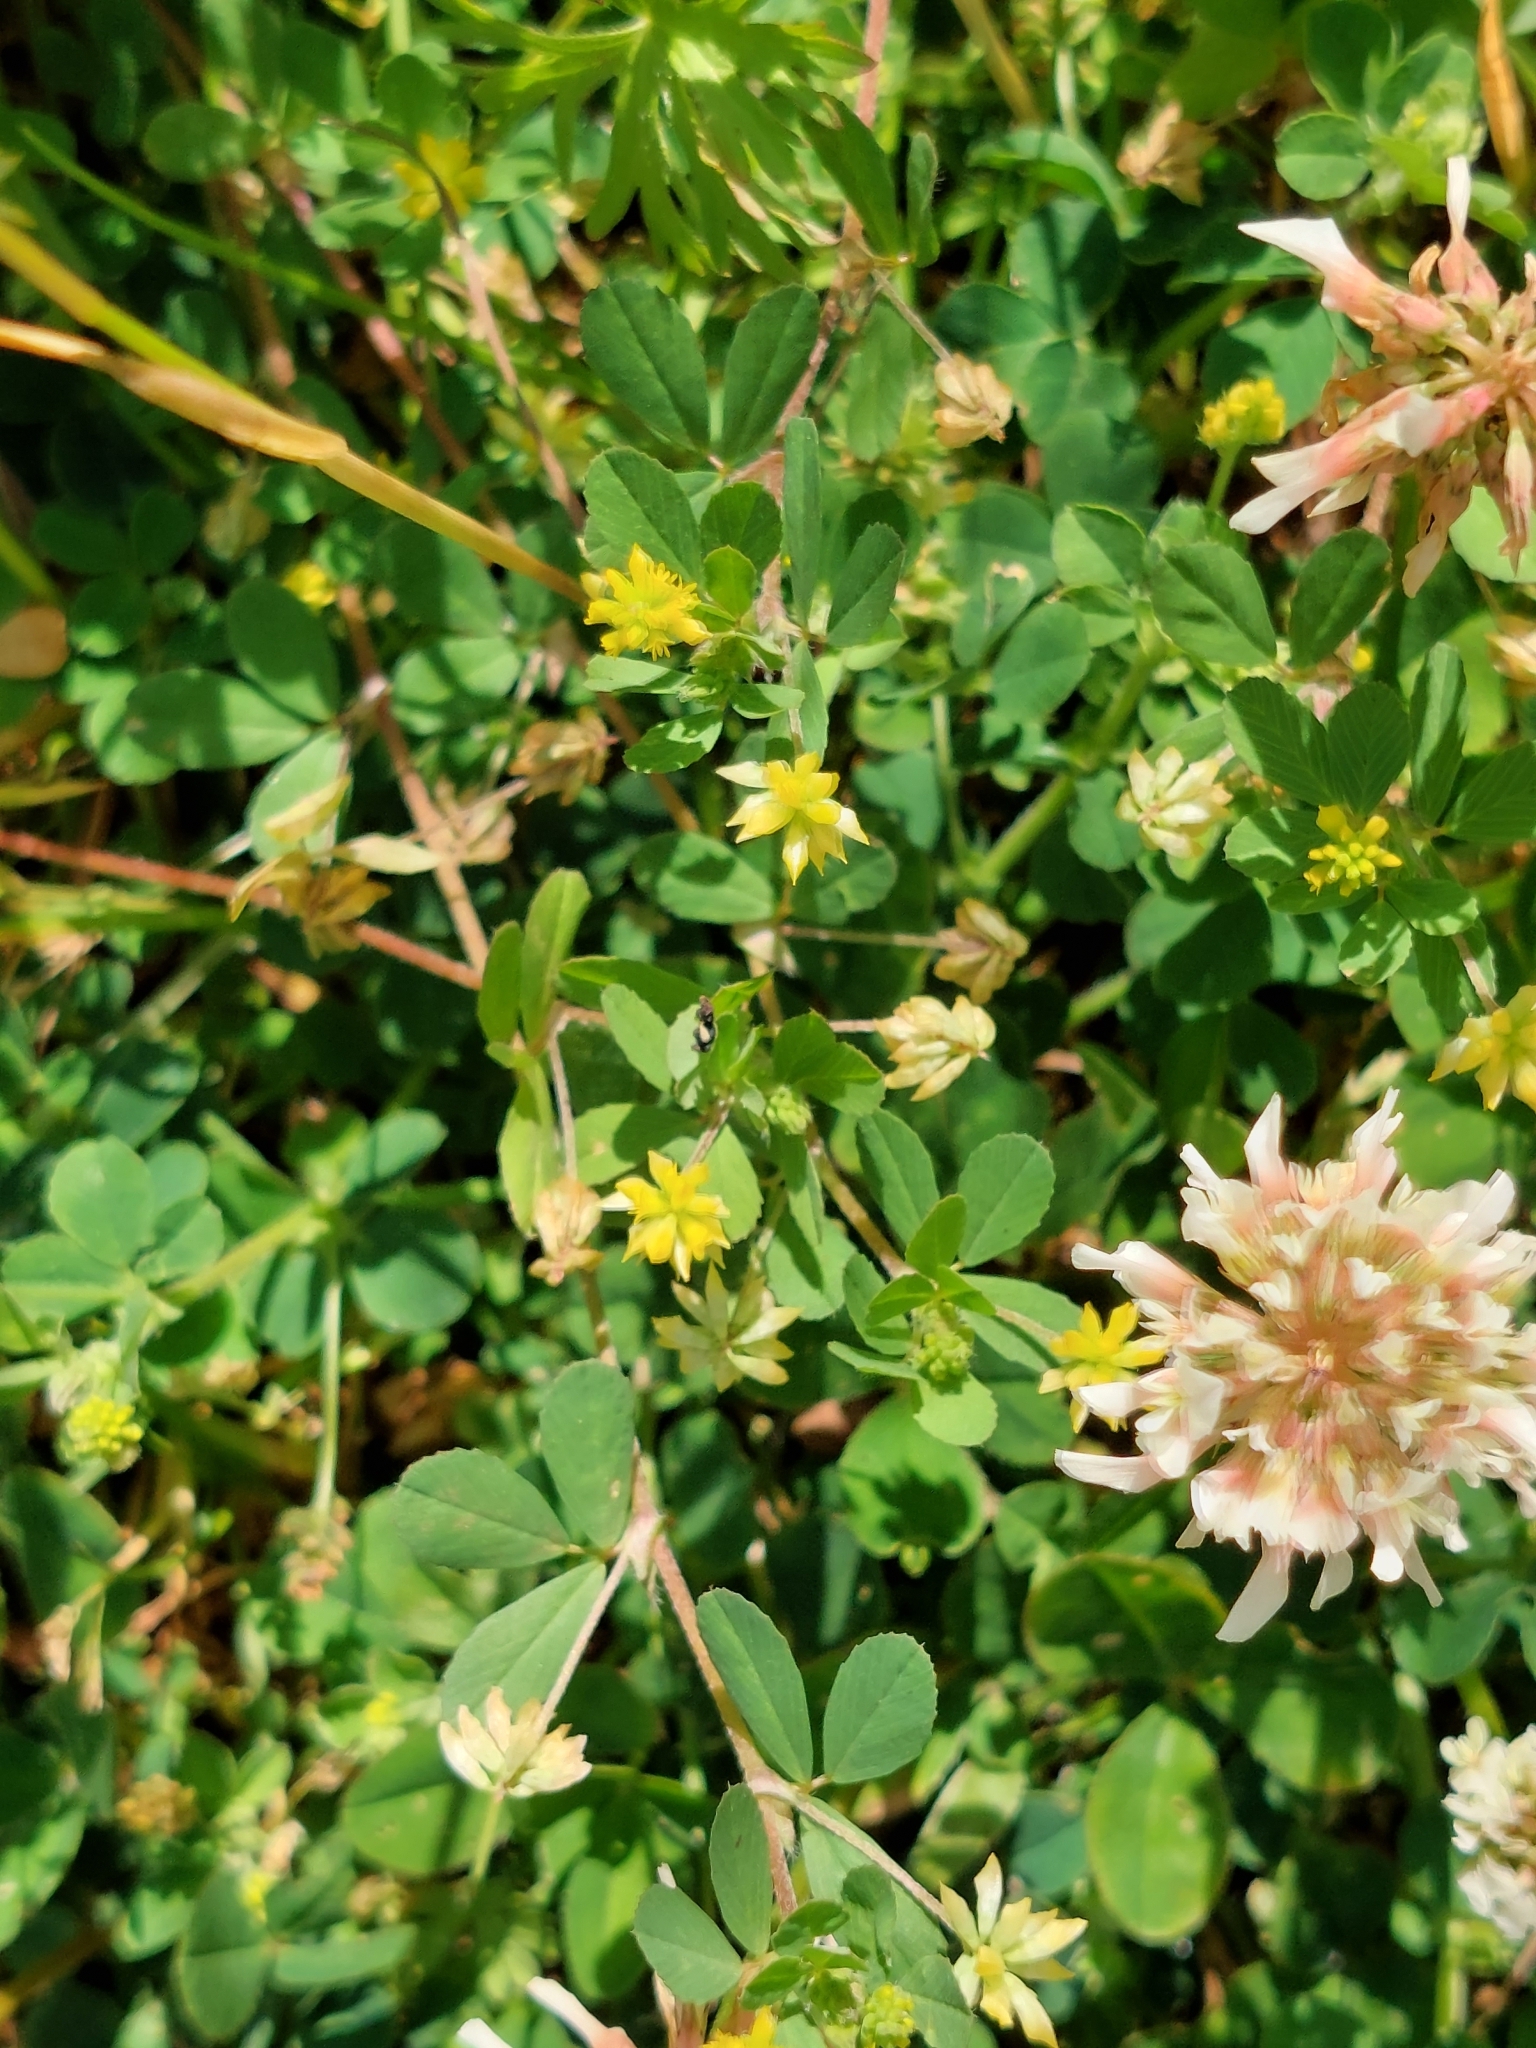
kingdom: Plantae
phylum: Tracheophyta
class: Magnoliopsida
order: Fabales
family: Fabaceae
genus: Trifolium
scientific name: Trifolium dubium
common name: Suckling clover
